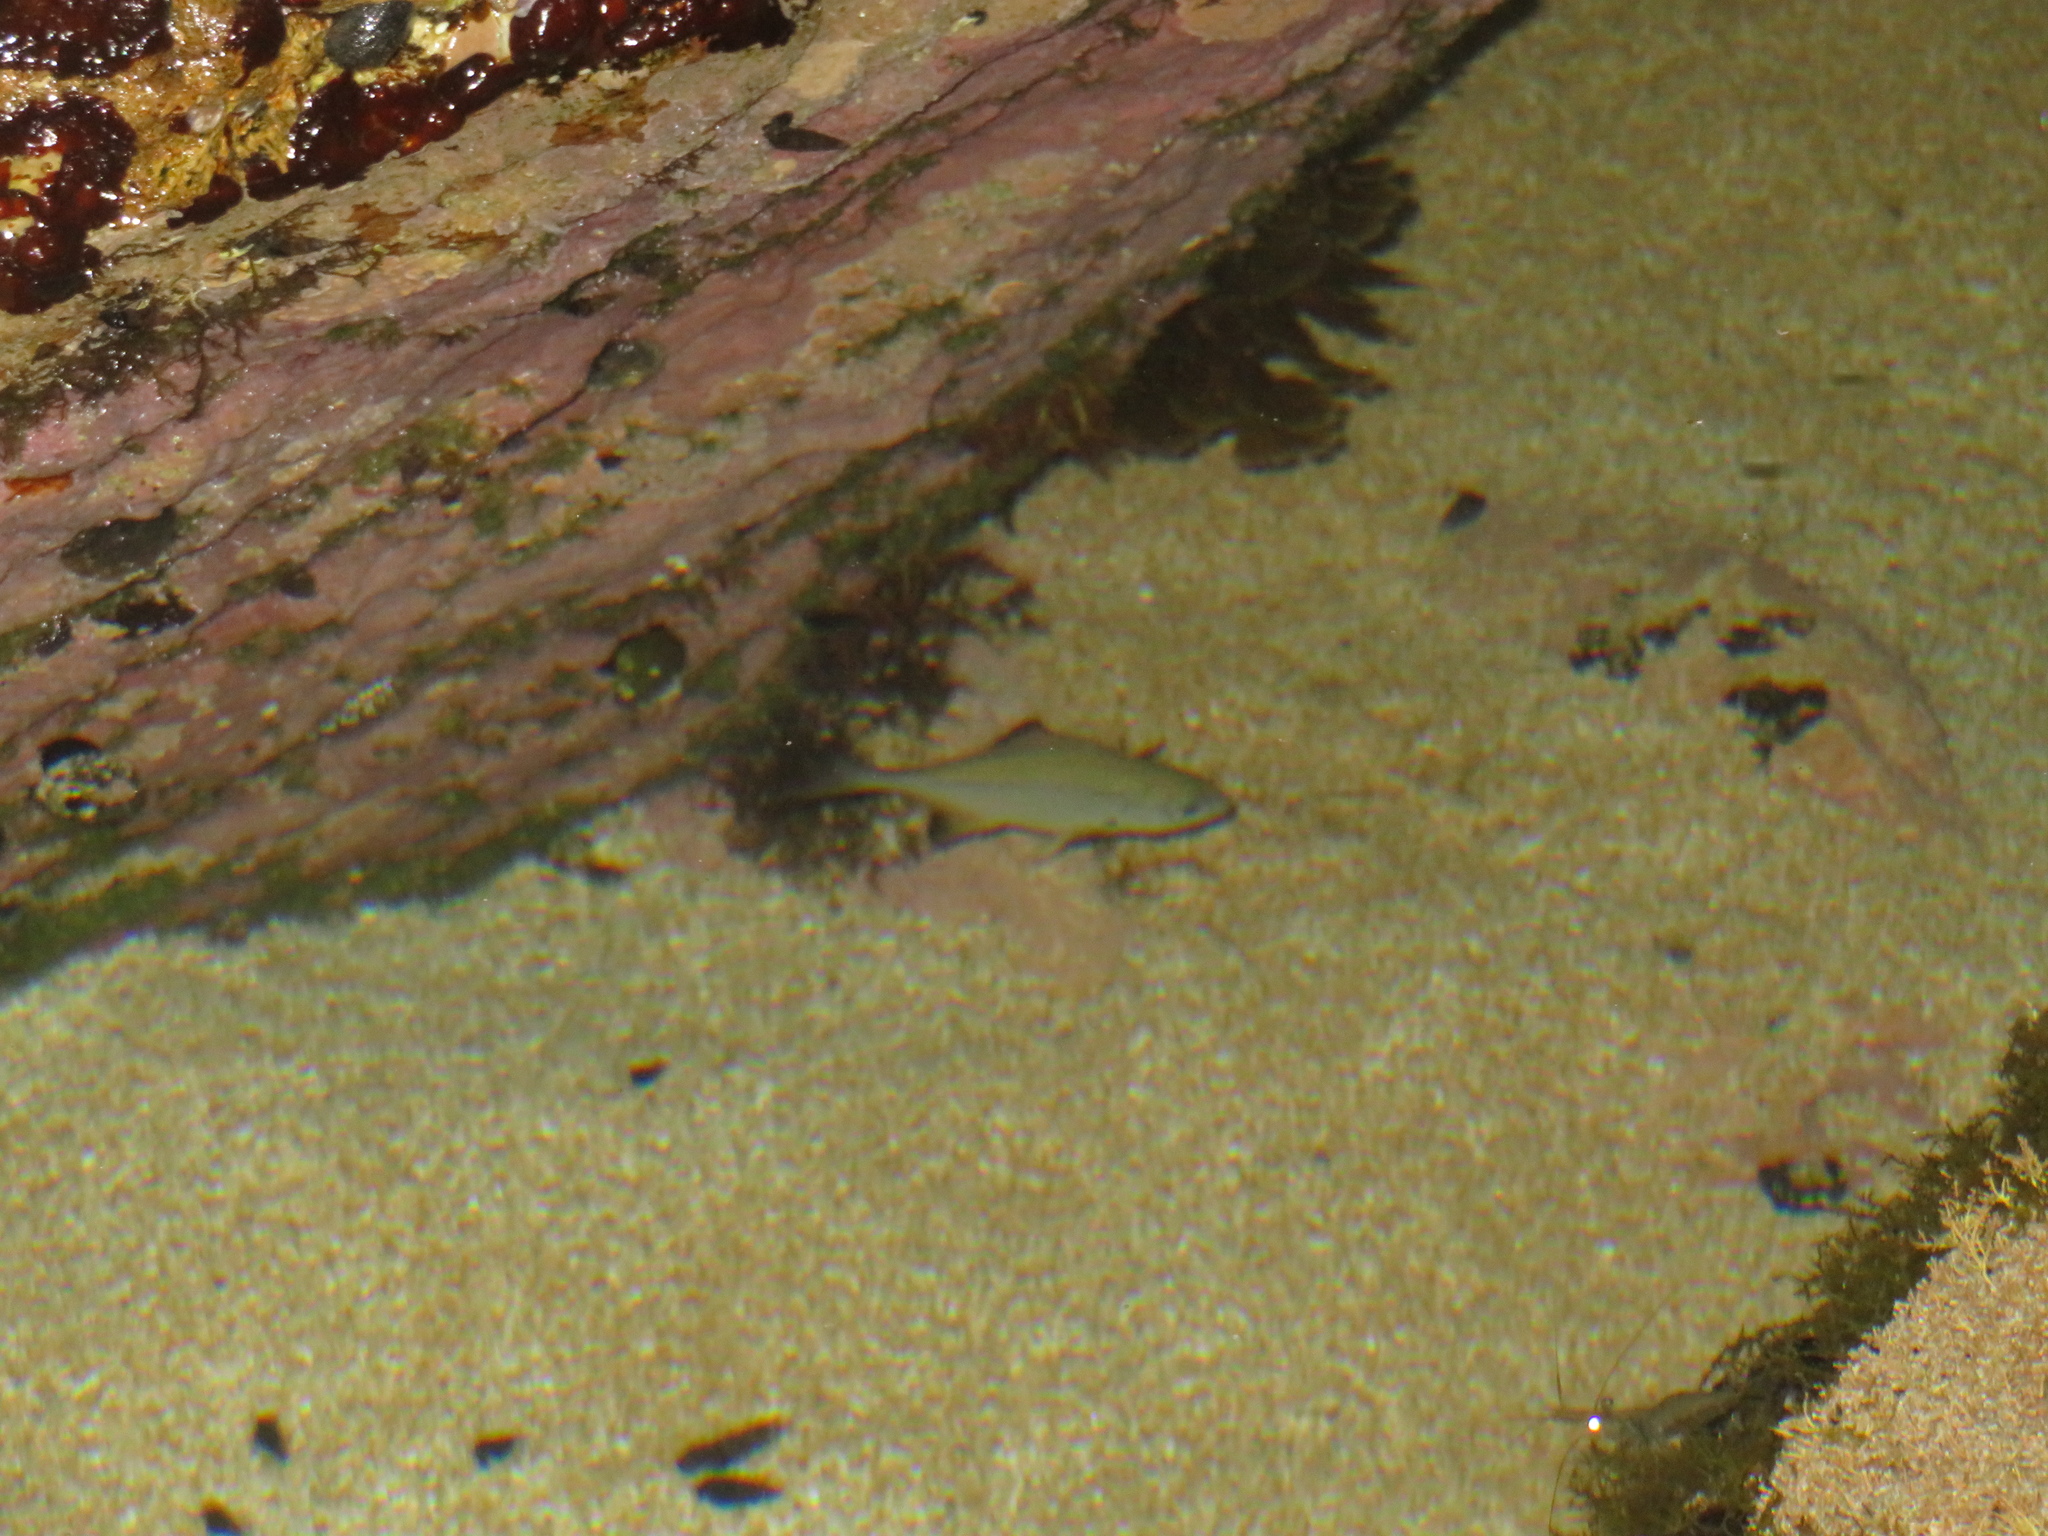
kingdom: Animalia
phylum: Chordata
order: Perciformes
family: Kyphosidae
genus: Scorpis
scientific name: Scorpis lineolata
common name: Sweep
